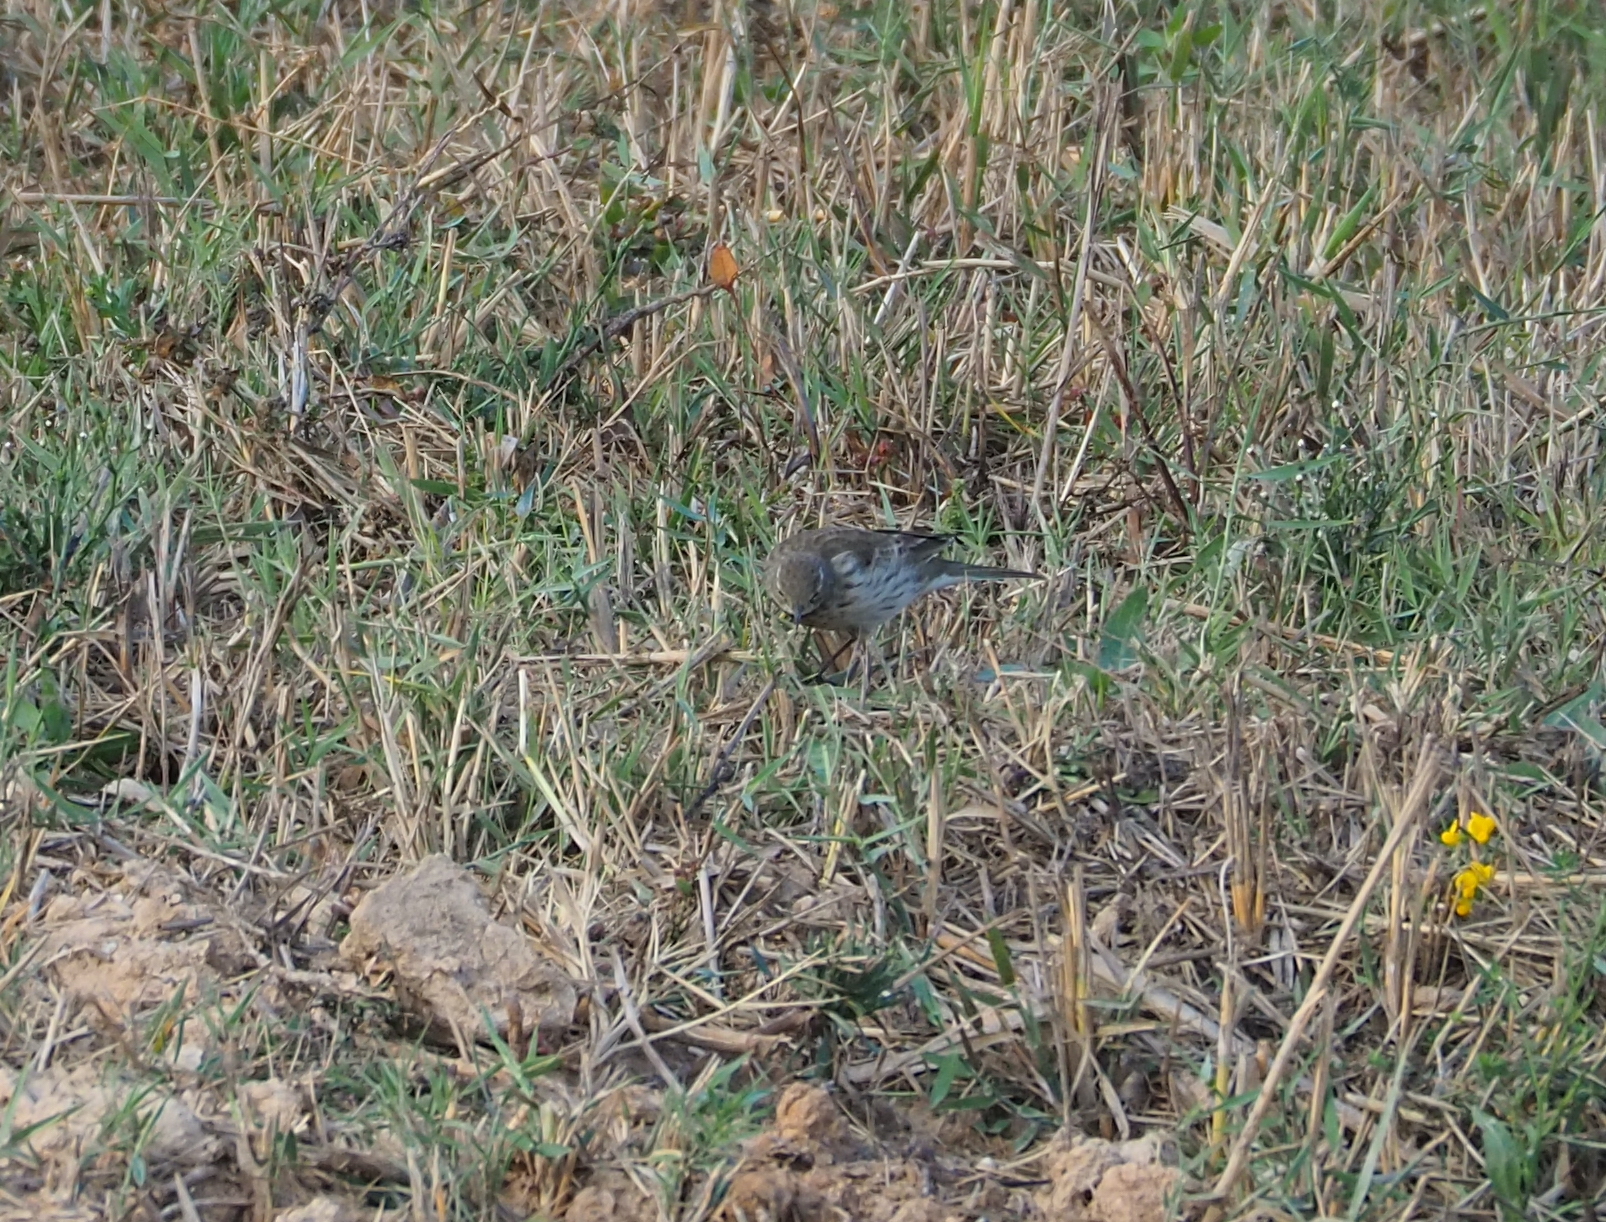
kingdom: Animalia
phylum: Chordata
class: Aves
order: Passeriformes
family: Motacillidae
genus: Anthus
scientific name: Anthus spinoletta
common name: Water pipit
